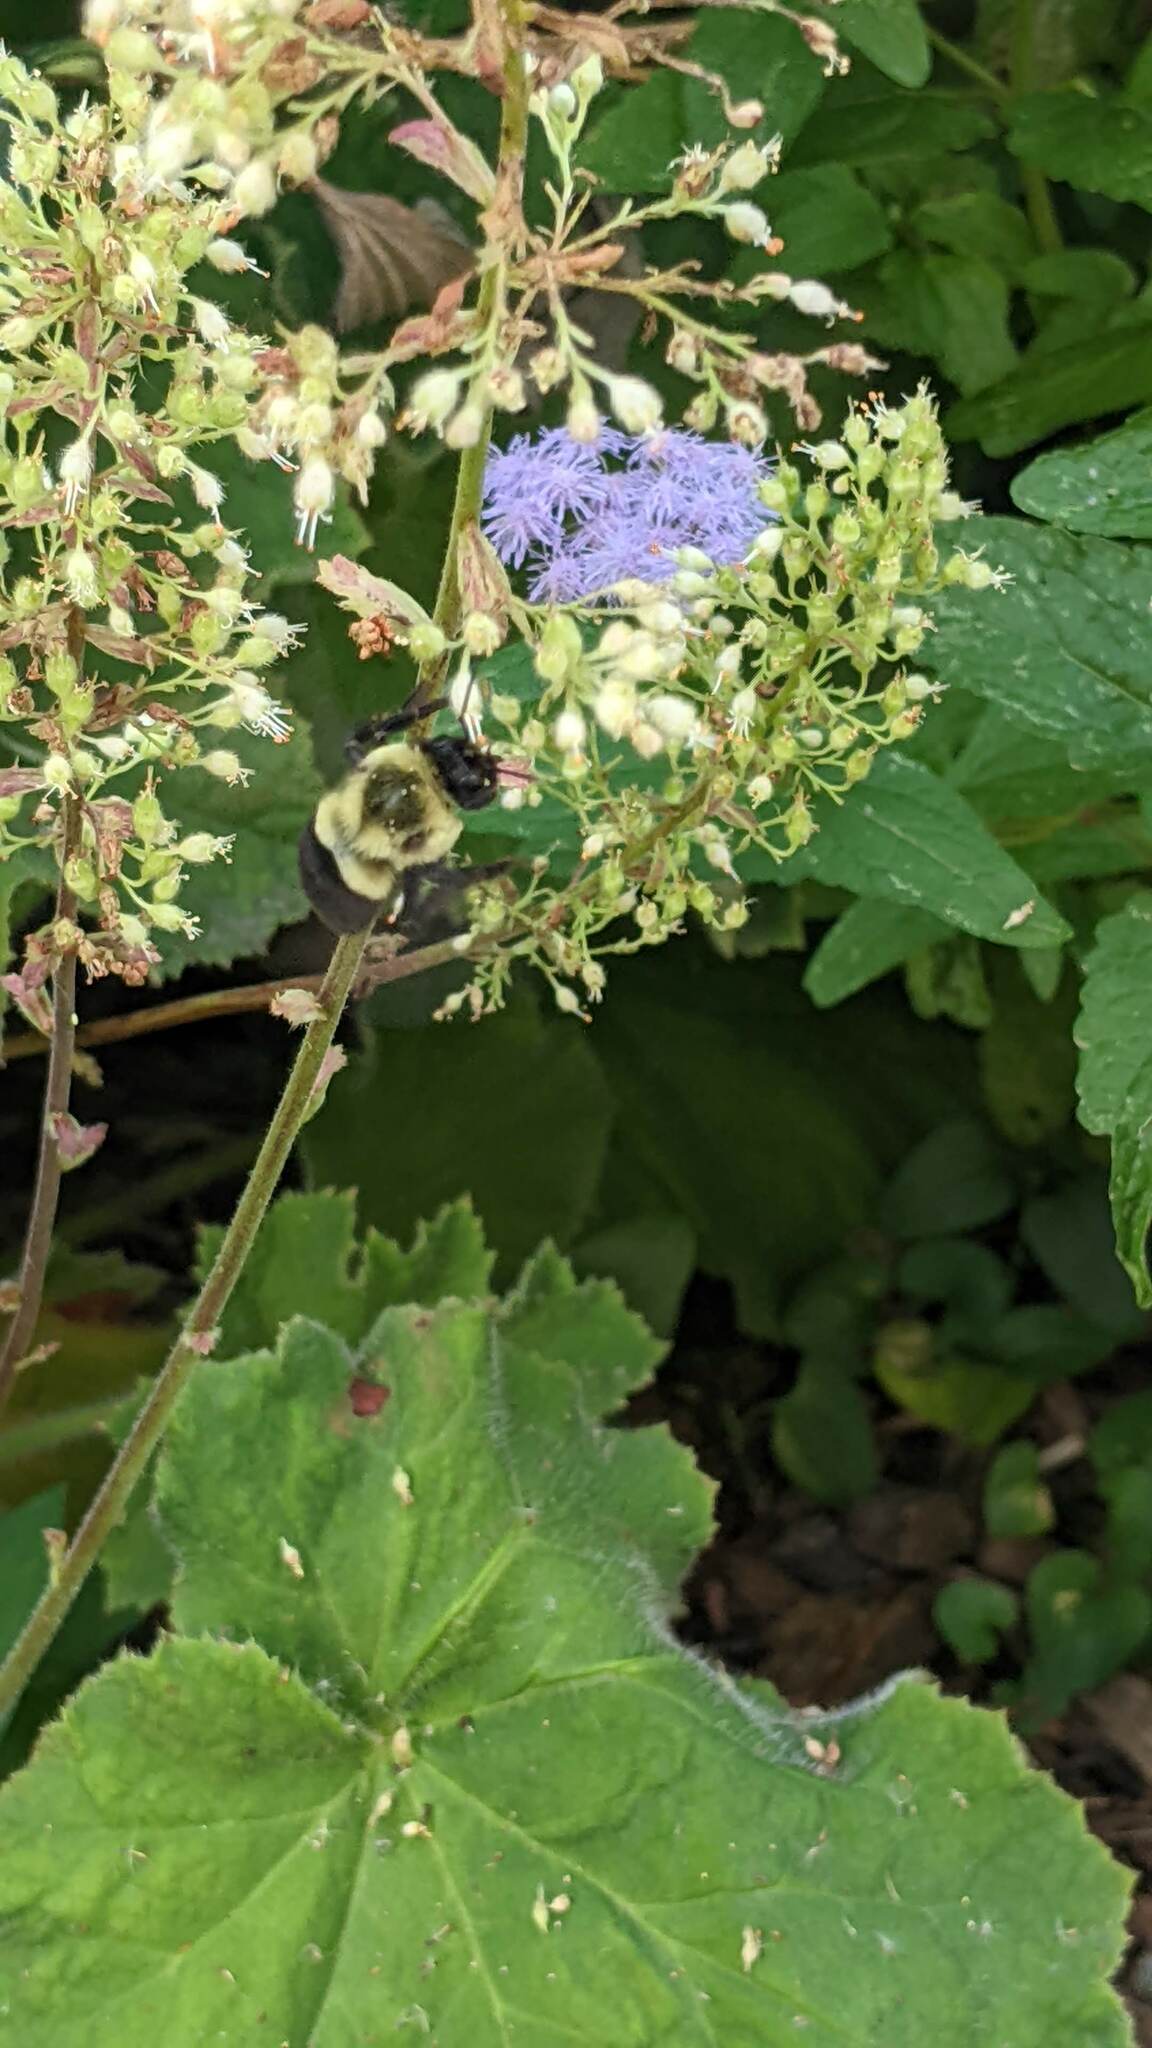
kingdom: Animalia
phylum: Arthropoda
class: Insecta
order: Hymenoptera
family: Apidae
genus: Bombus
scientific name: Bombus impatiens
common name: Common eastern bumble bee
